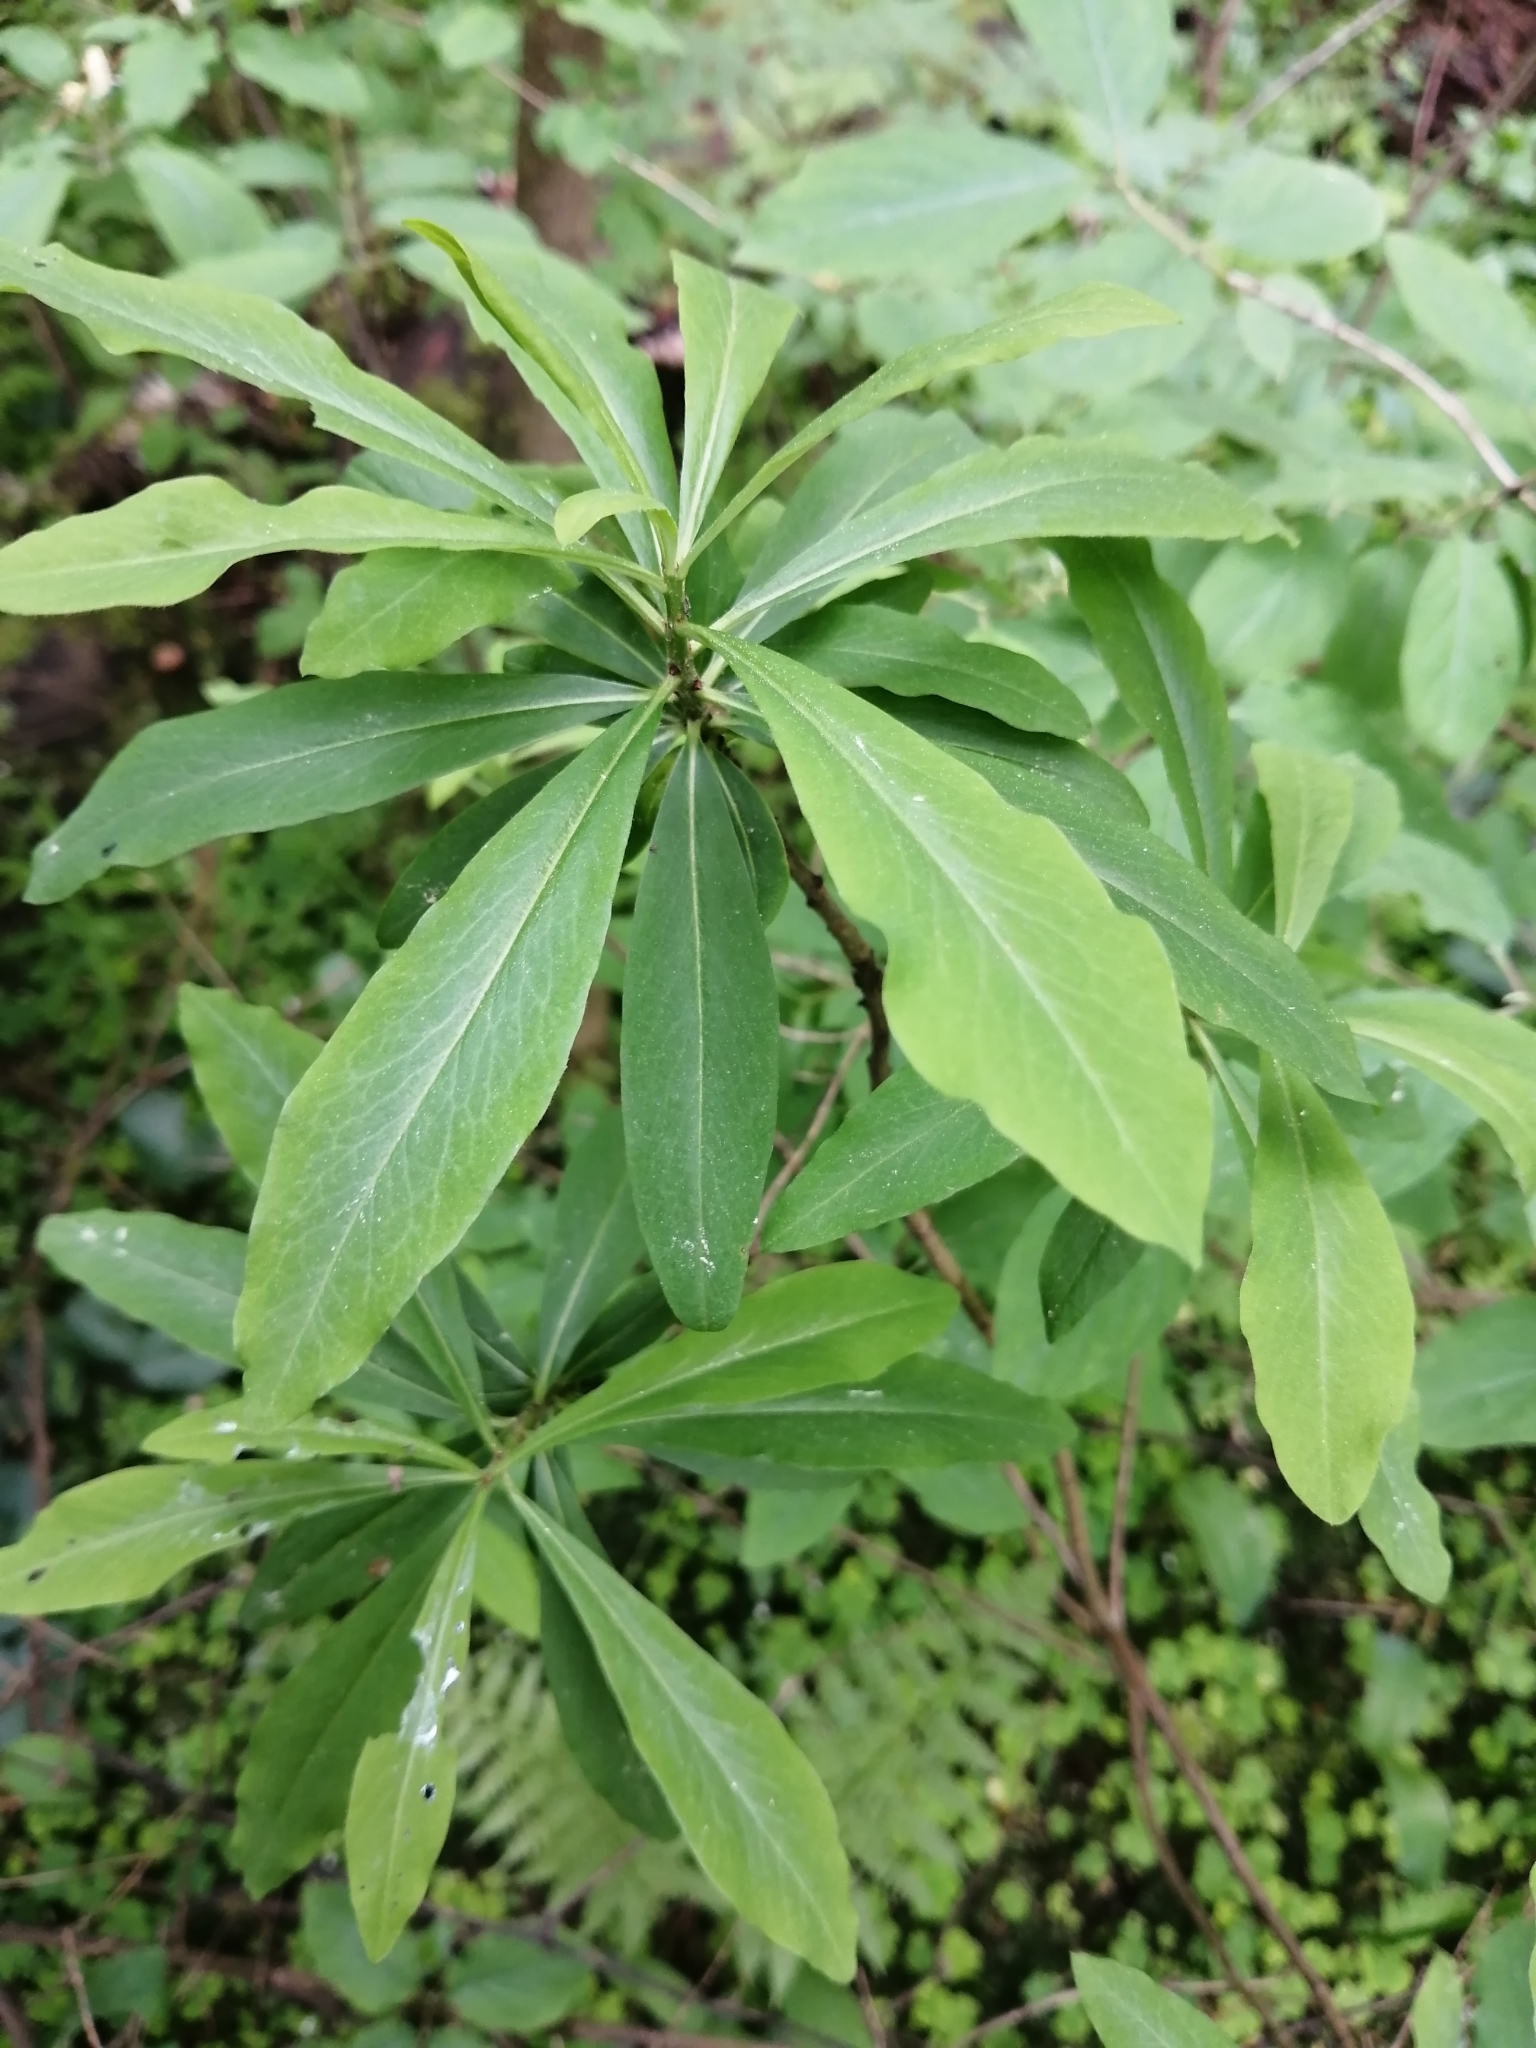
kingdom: Plantae
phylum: Tracheophyta
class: Magnoliopsida
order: Malvales
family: Thymelaeaceae
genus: Daphne
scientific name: Daphne mezereum
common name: Mezereon
